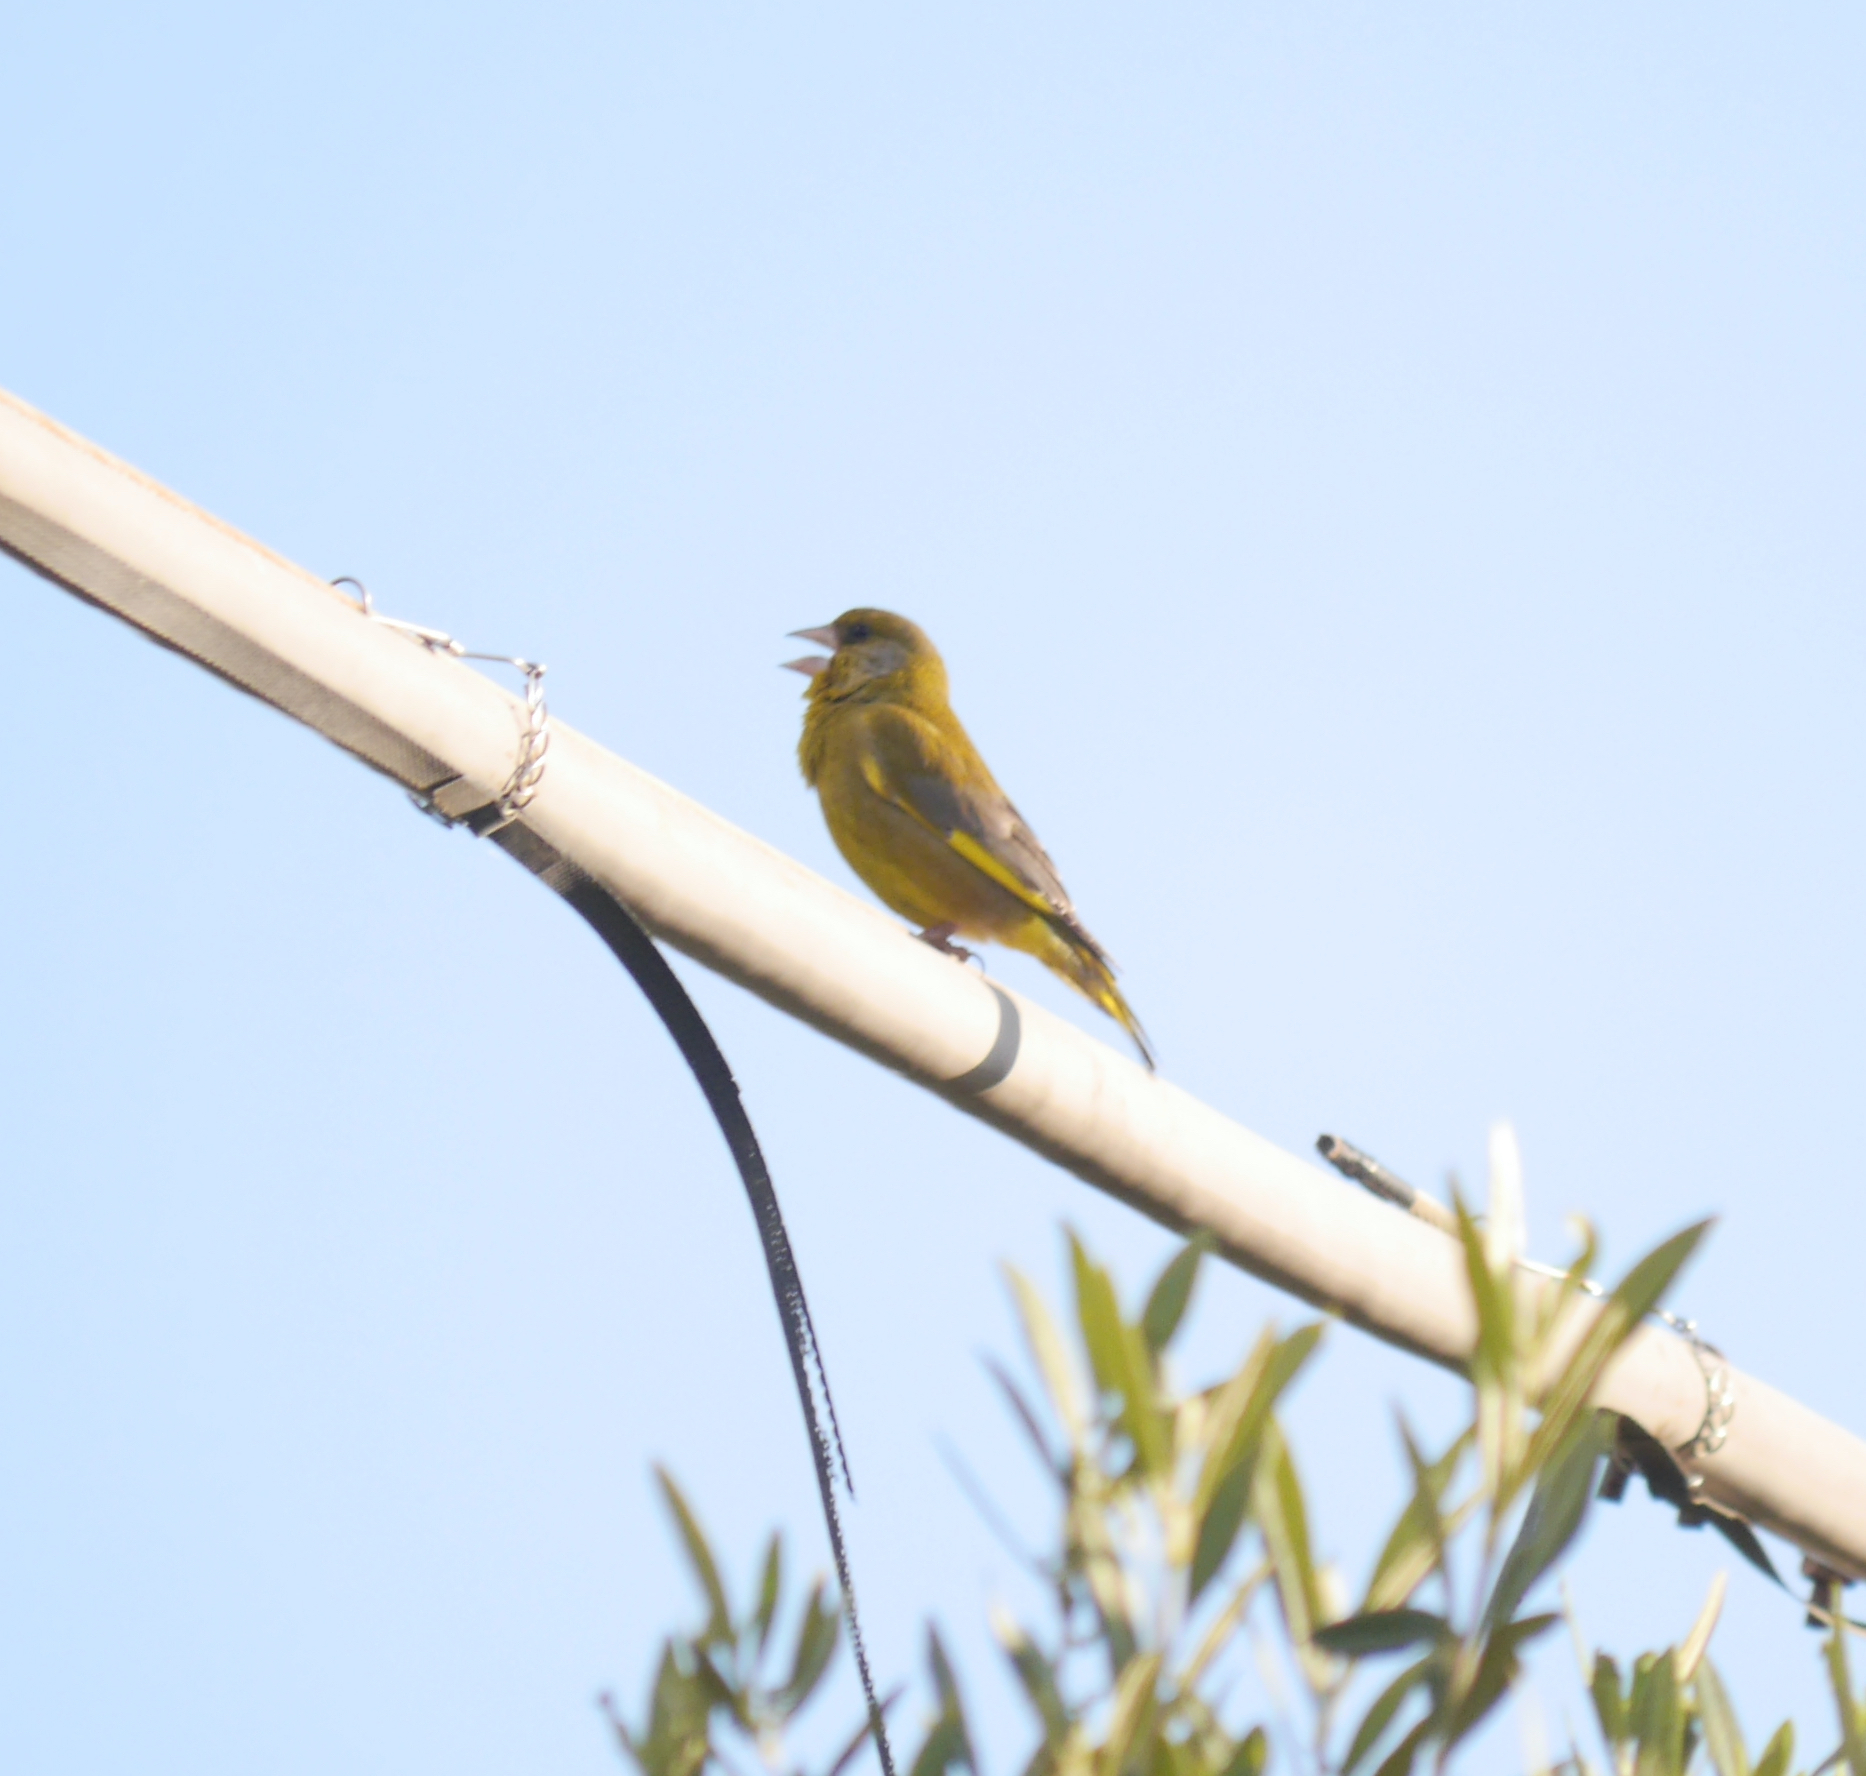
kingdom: Plantae
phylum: Tracheophyta
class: Liliopsida
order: Poales
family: Poaceae
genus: Chloris
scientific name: Chloris chloris
